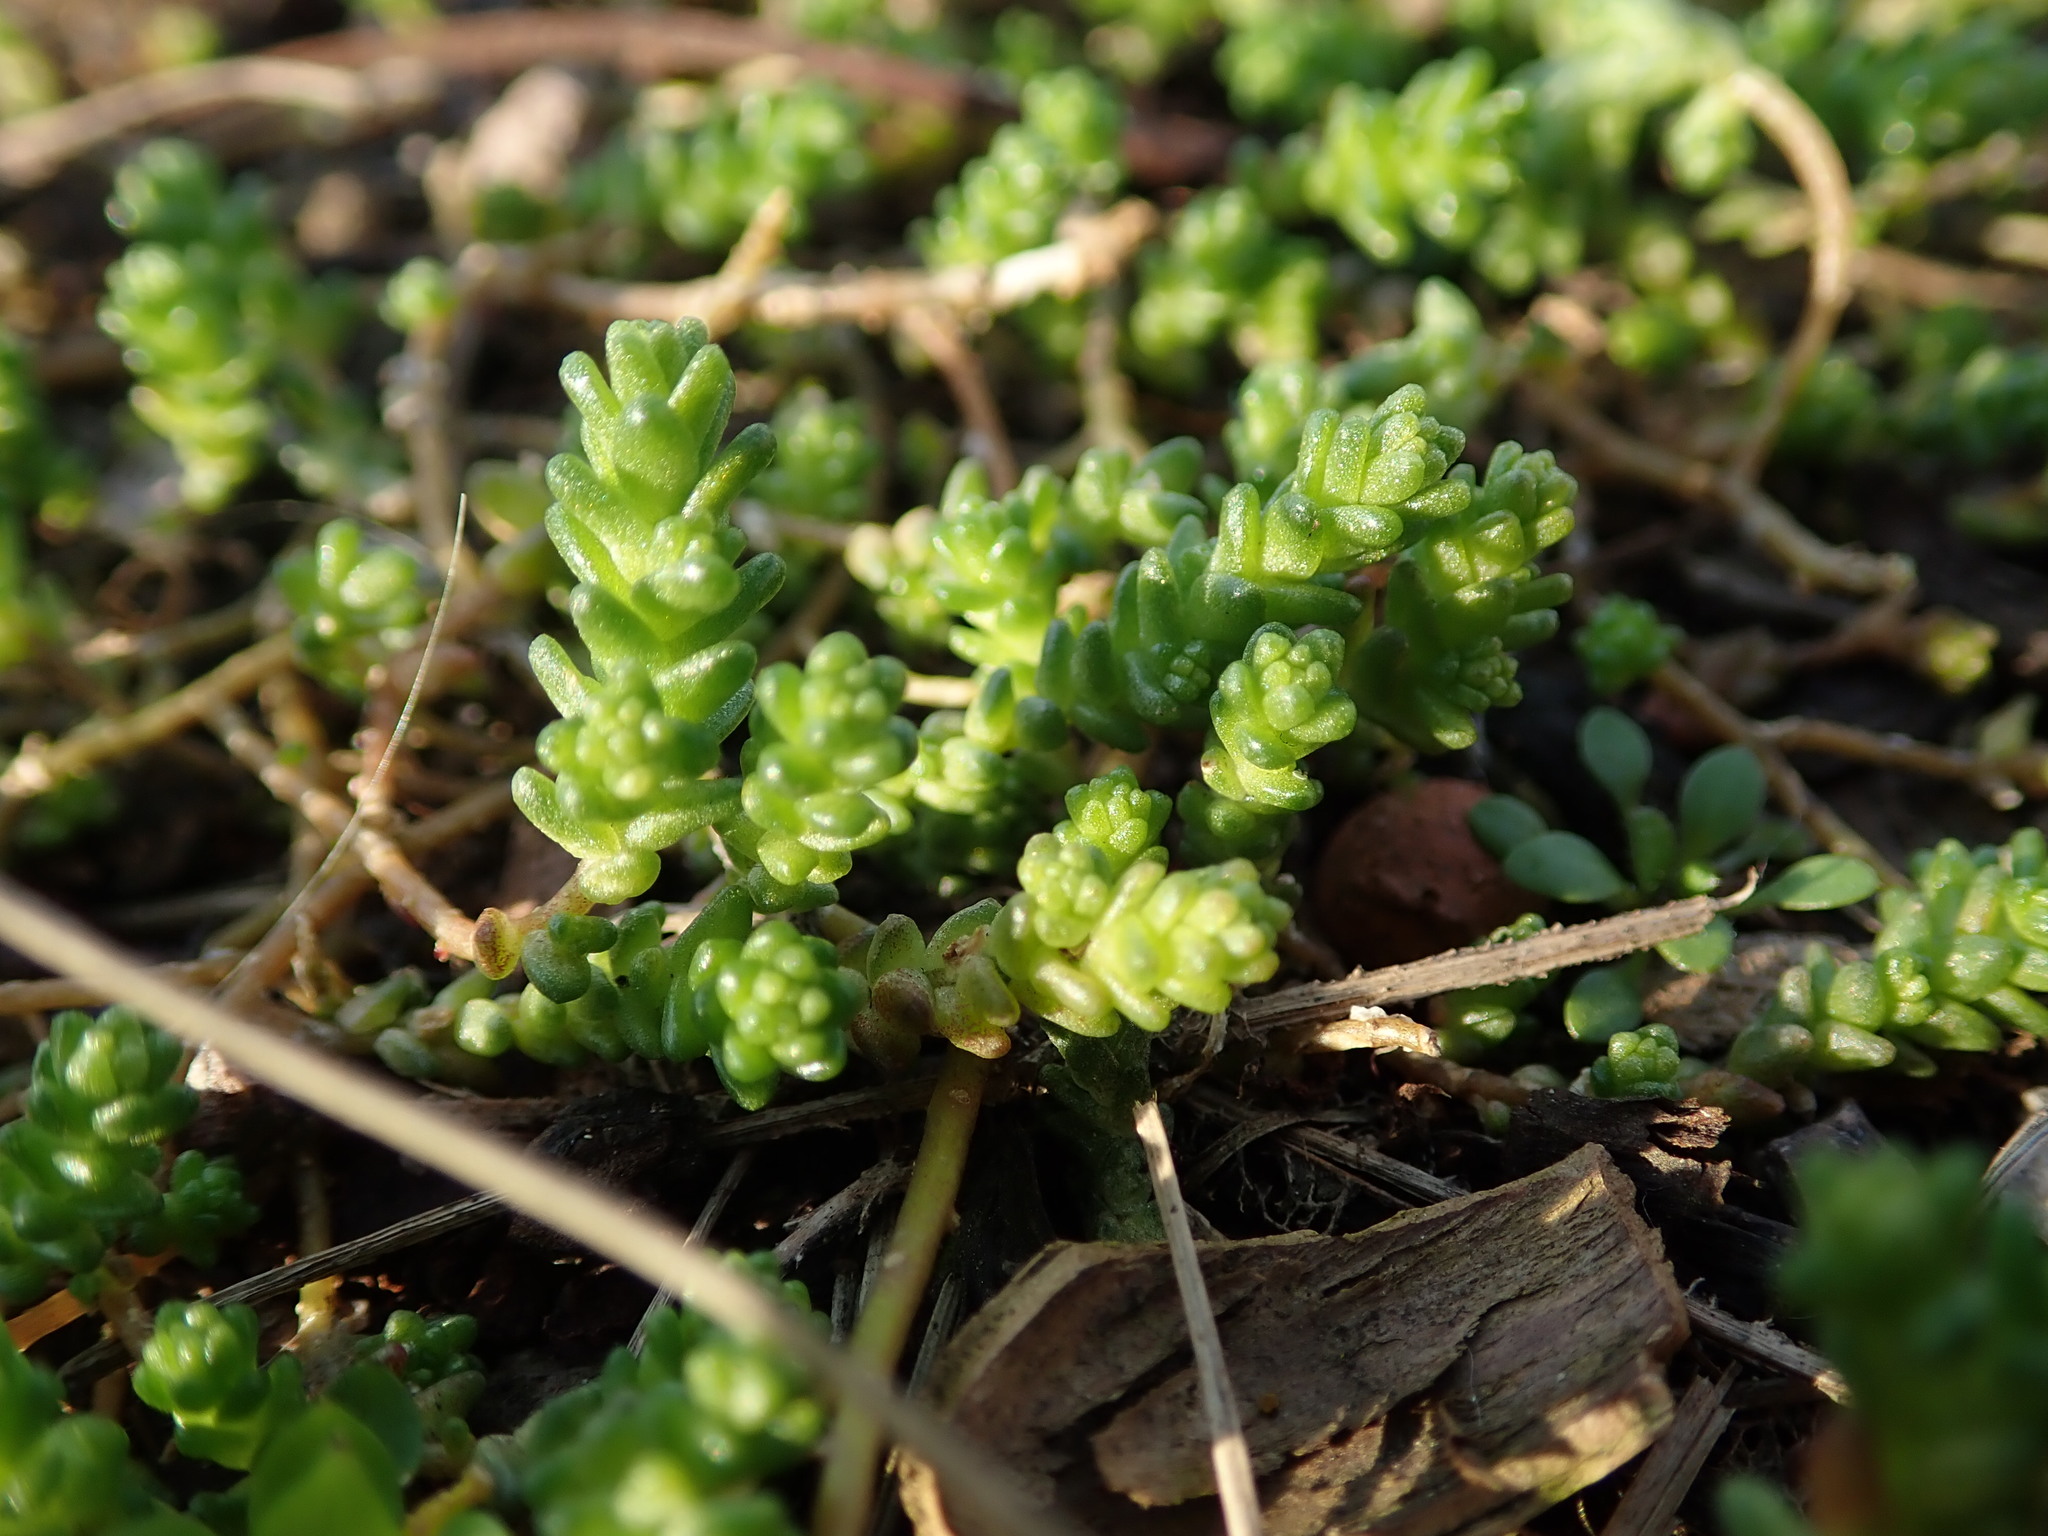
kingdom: Plantae
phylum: Tracheophyta
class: Magnoliopsida
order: Saxifragales
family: Crassulaceae
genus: Sedum
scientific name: Sedum acre
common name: Biting stonecrop
